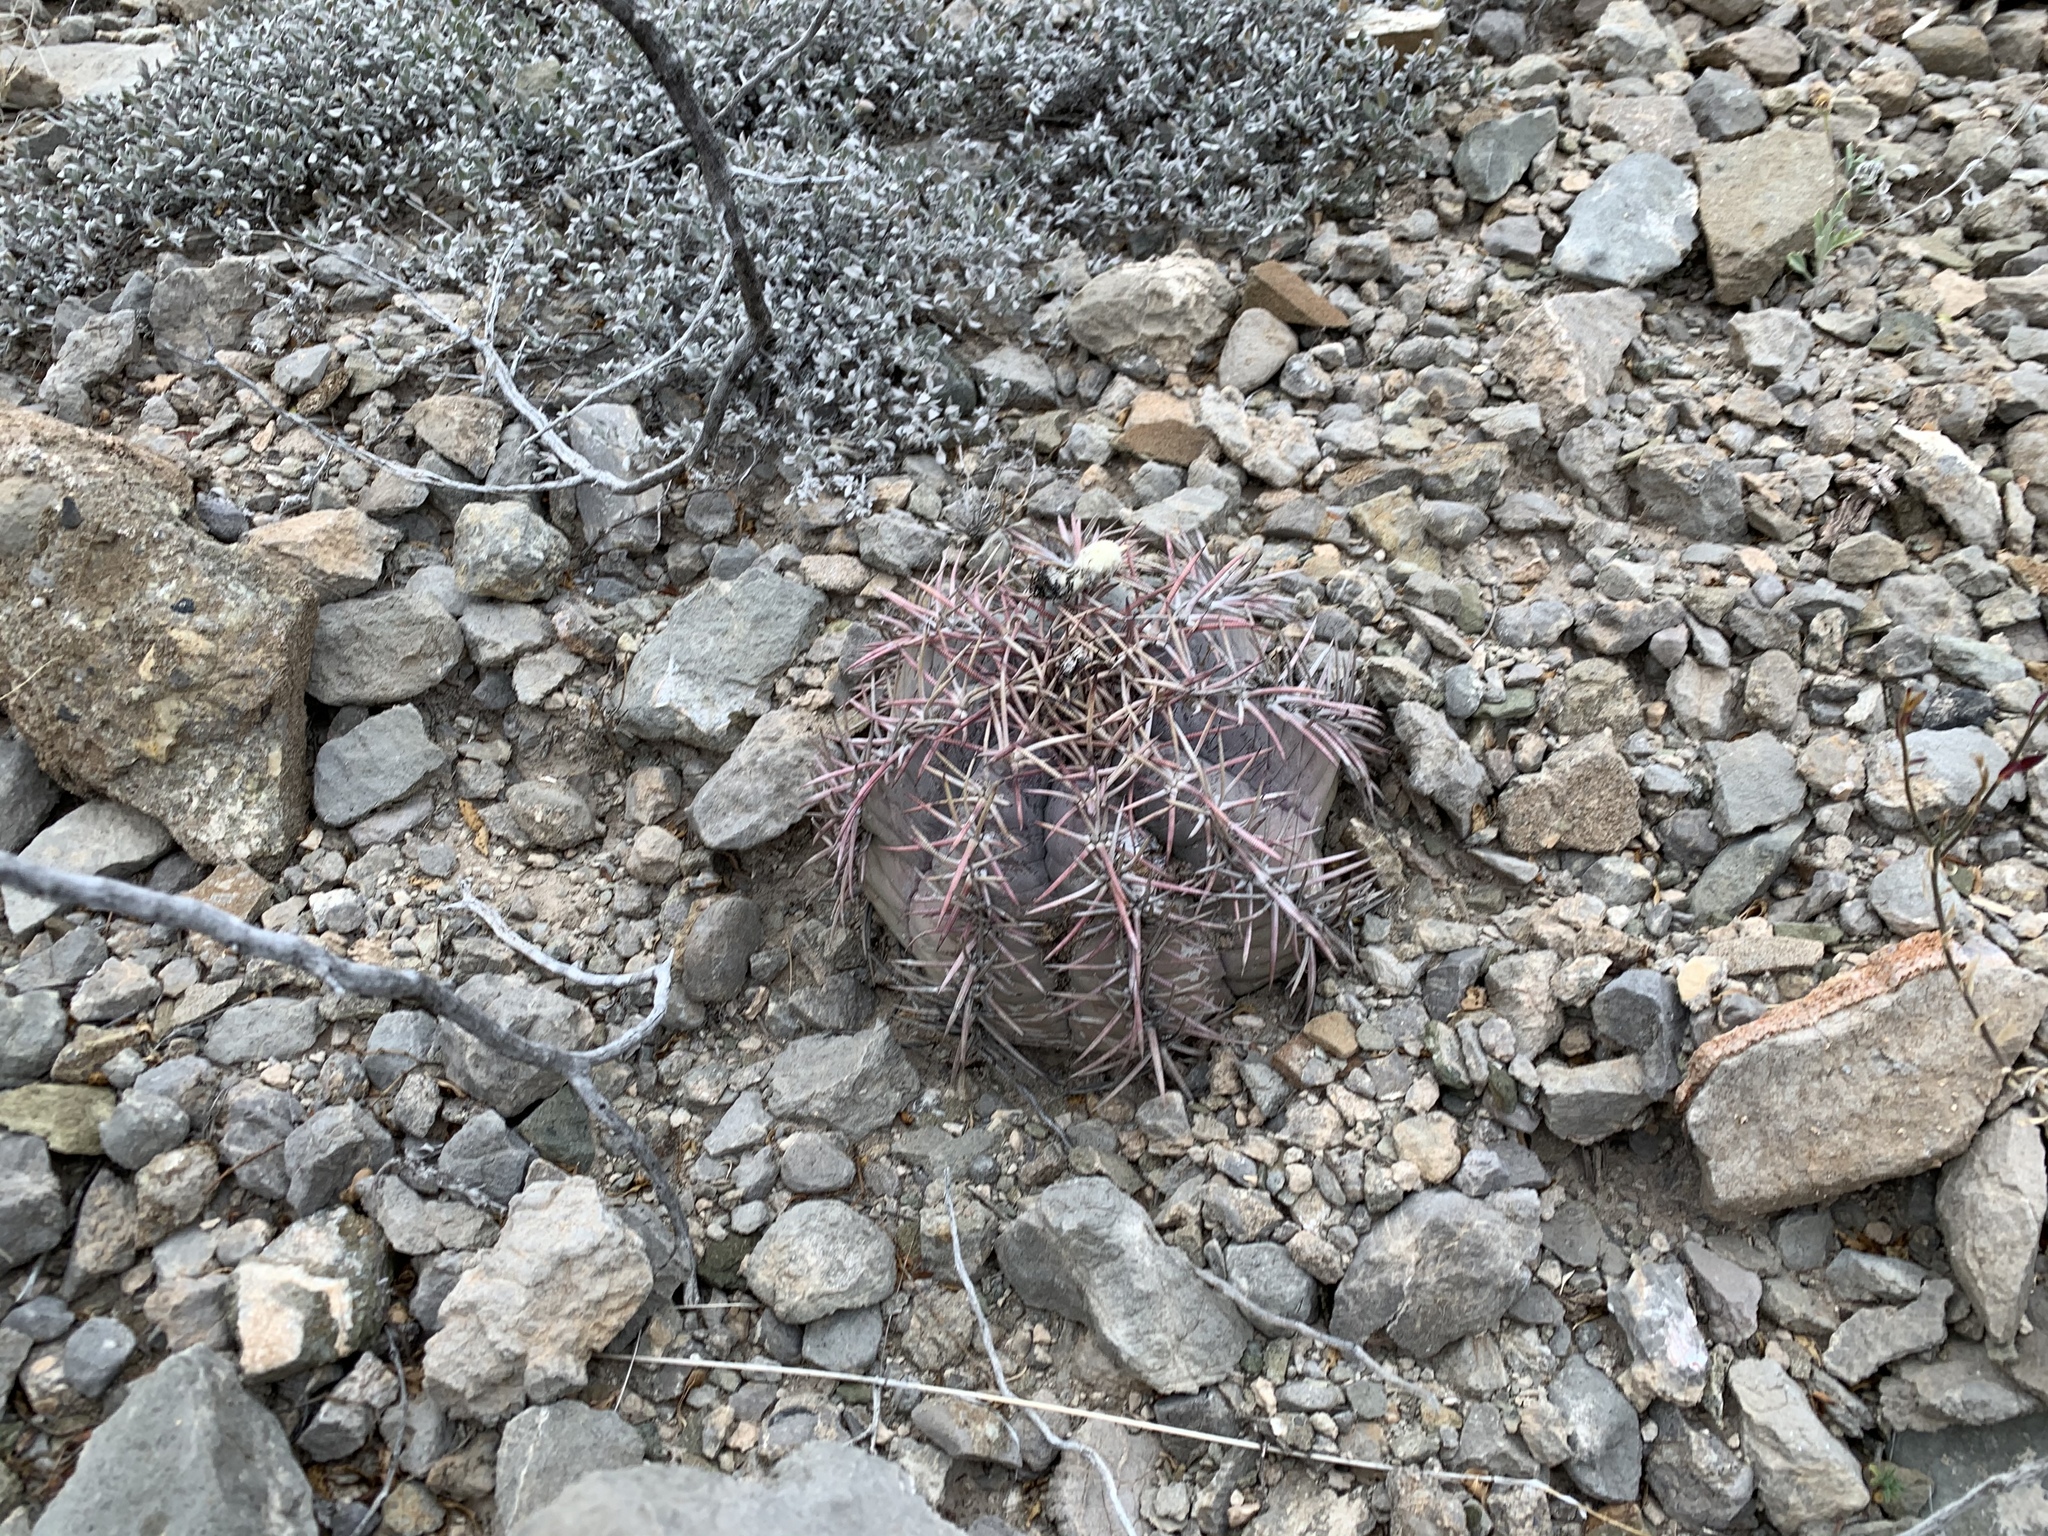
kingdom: Plantae
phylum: Tracheophyta
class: Magnoliopsida
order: Caryophyllales
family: Cactaceae
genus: Echinocactus
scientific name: Echinocactus horizonthalonius
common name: Devilshead
